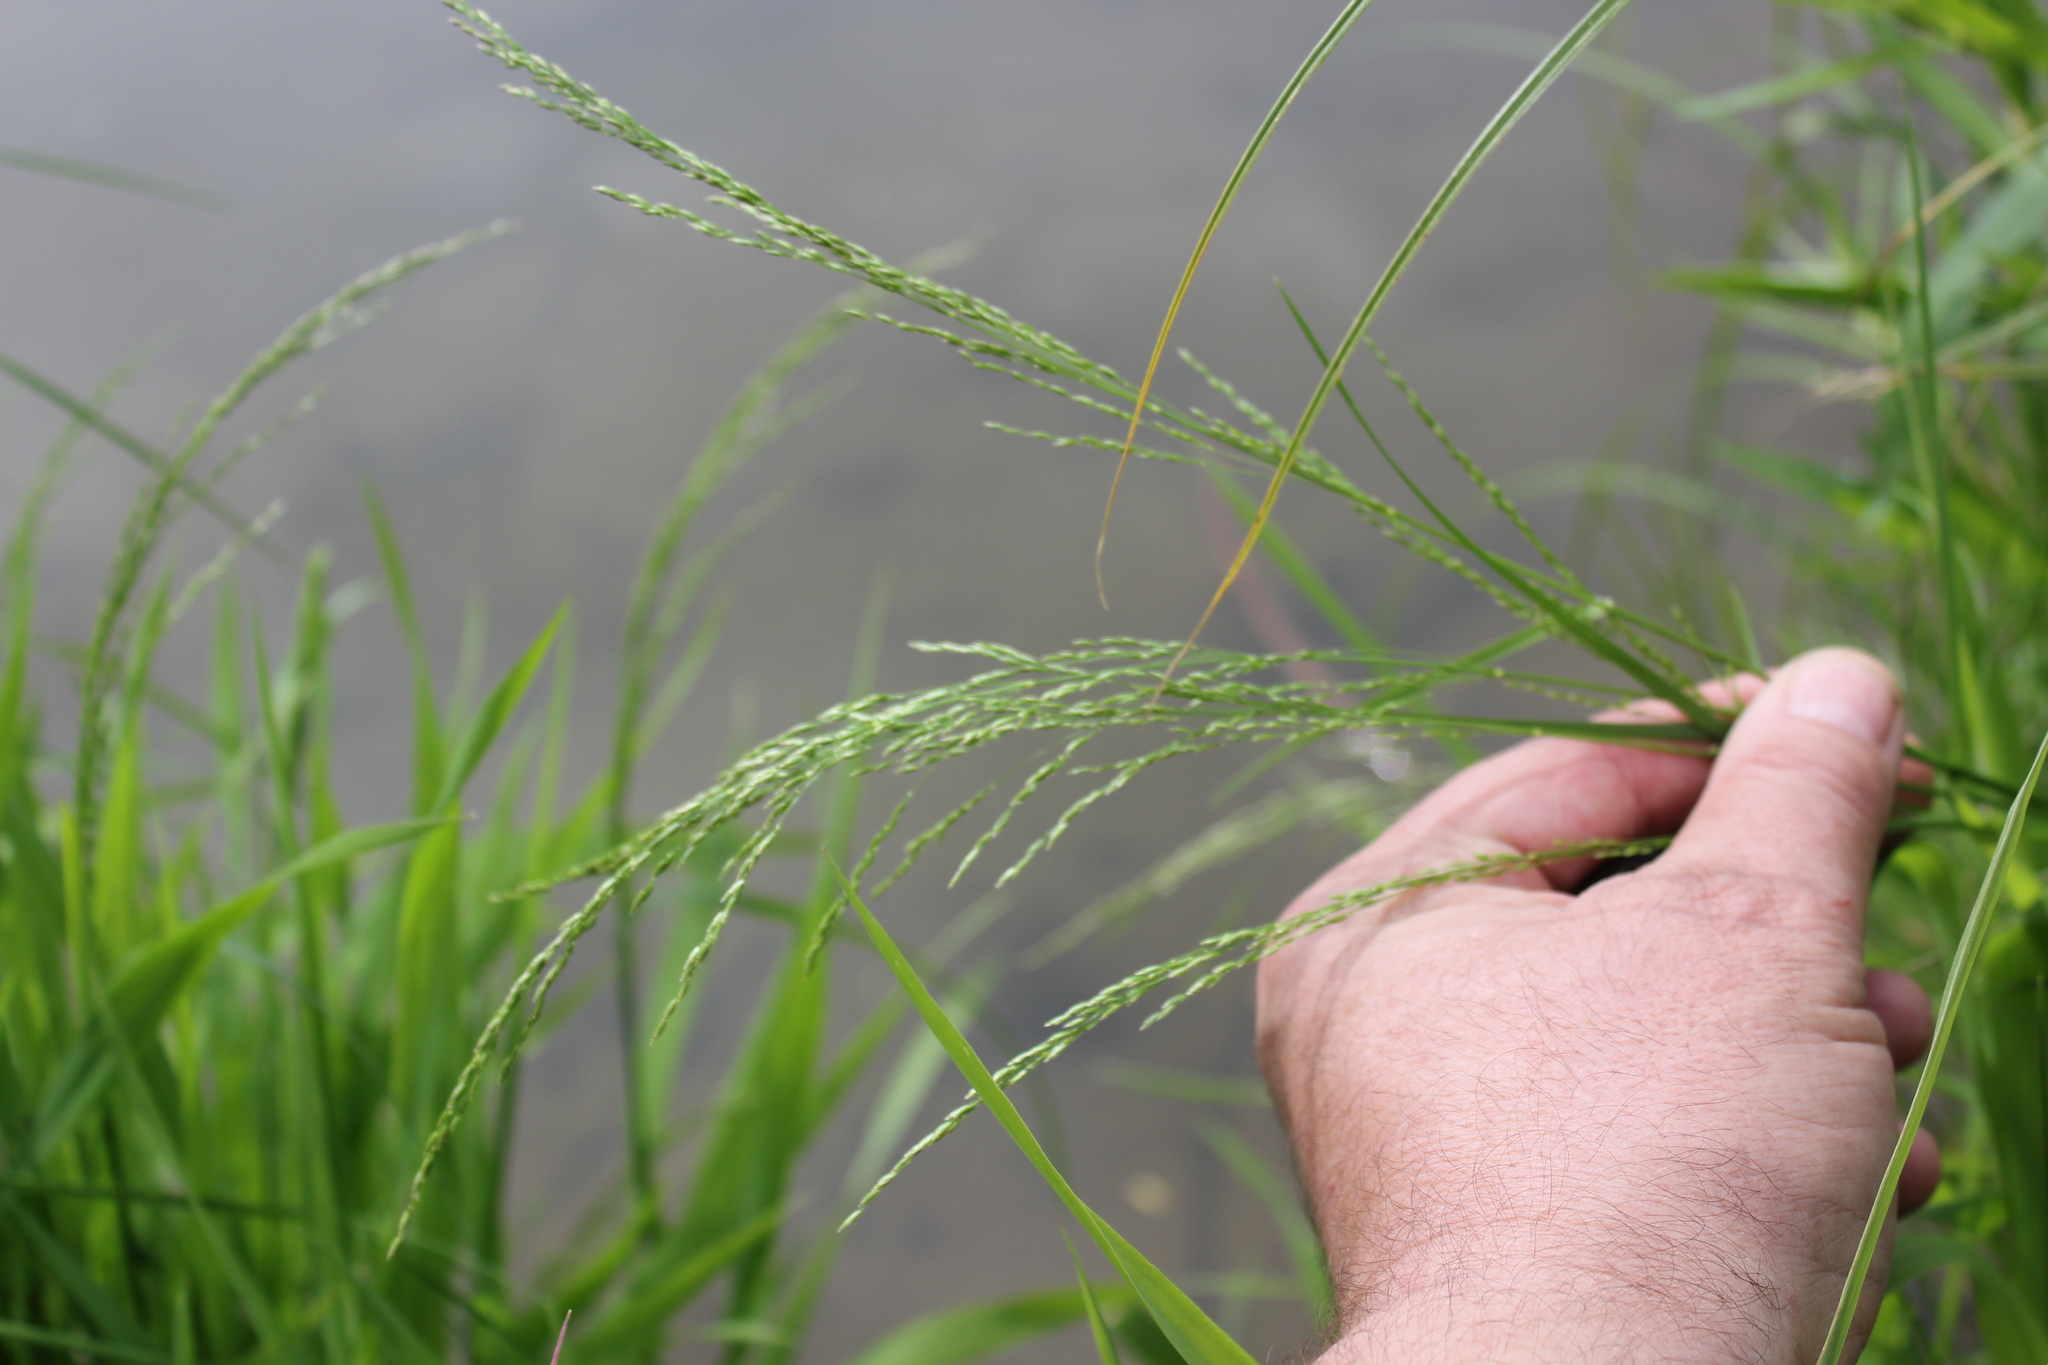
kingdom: Plantae
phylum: Tracheophyta
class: Liliopsida
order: Poales
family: Poaceae
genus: Poa
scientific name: Poa palustris
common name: Swamp meadow-grass
